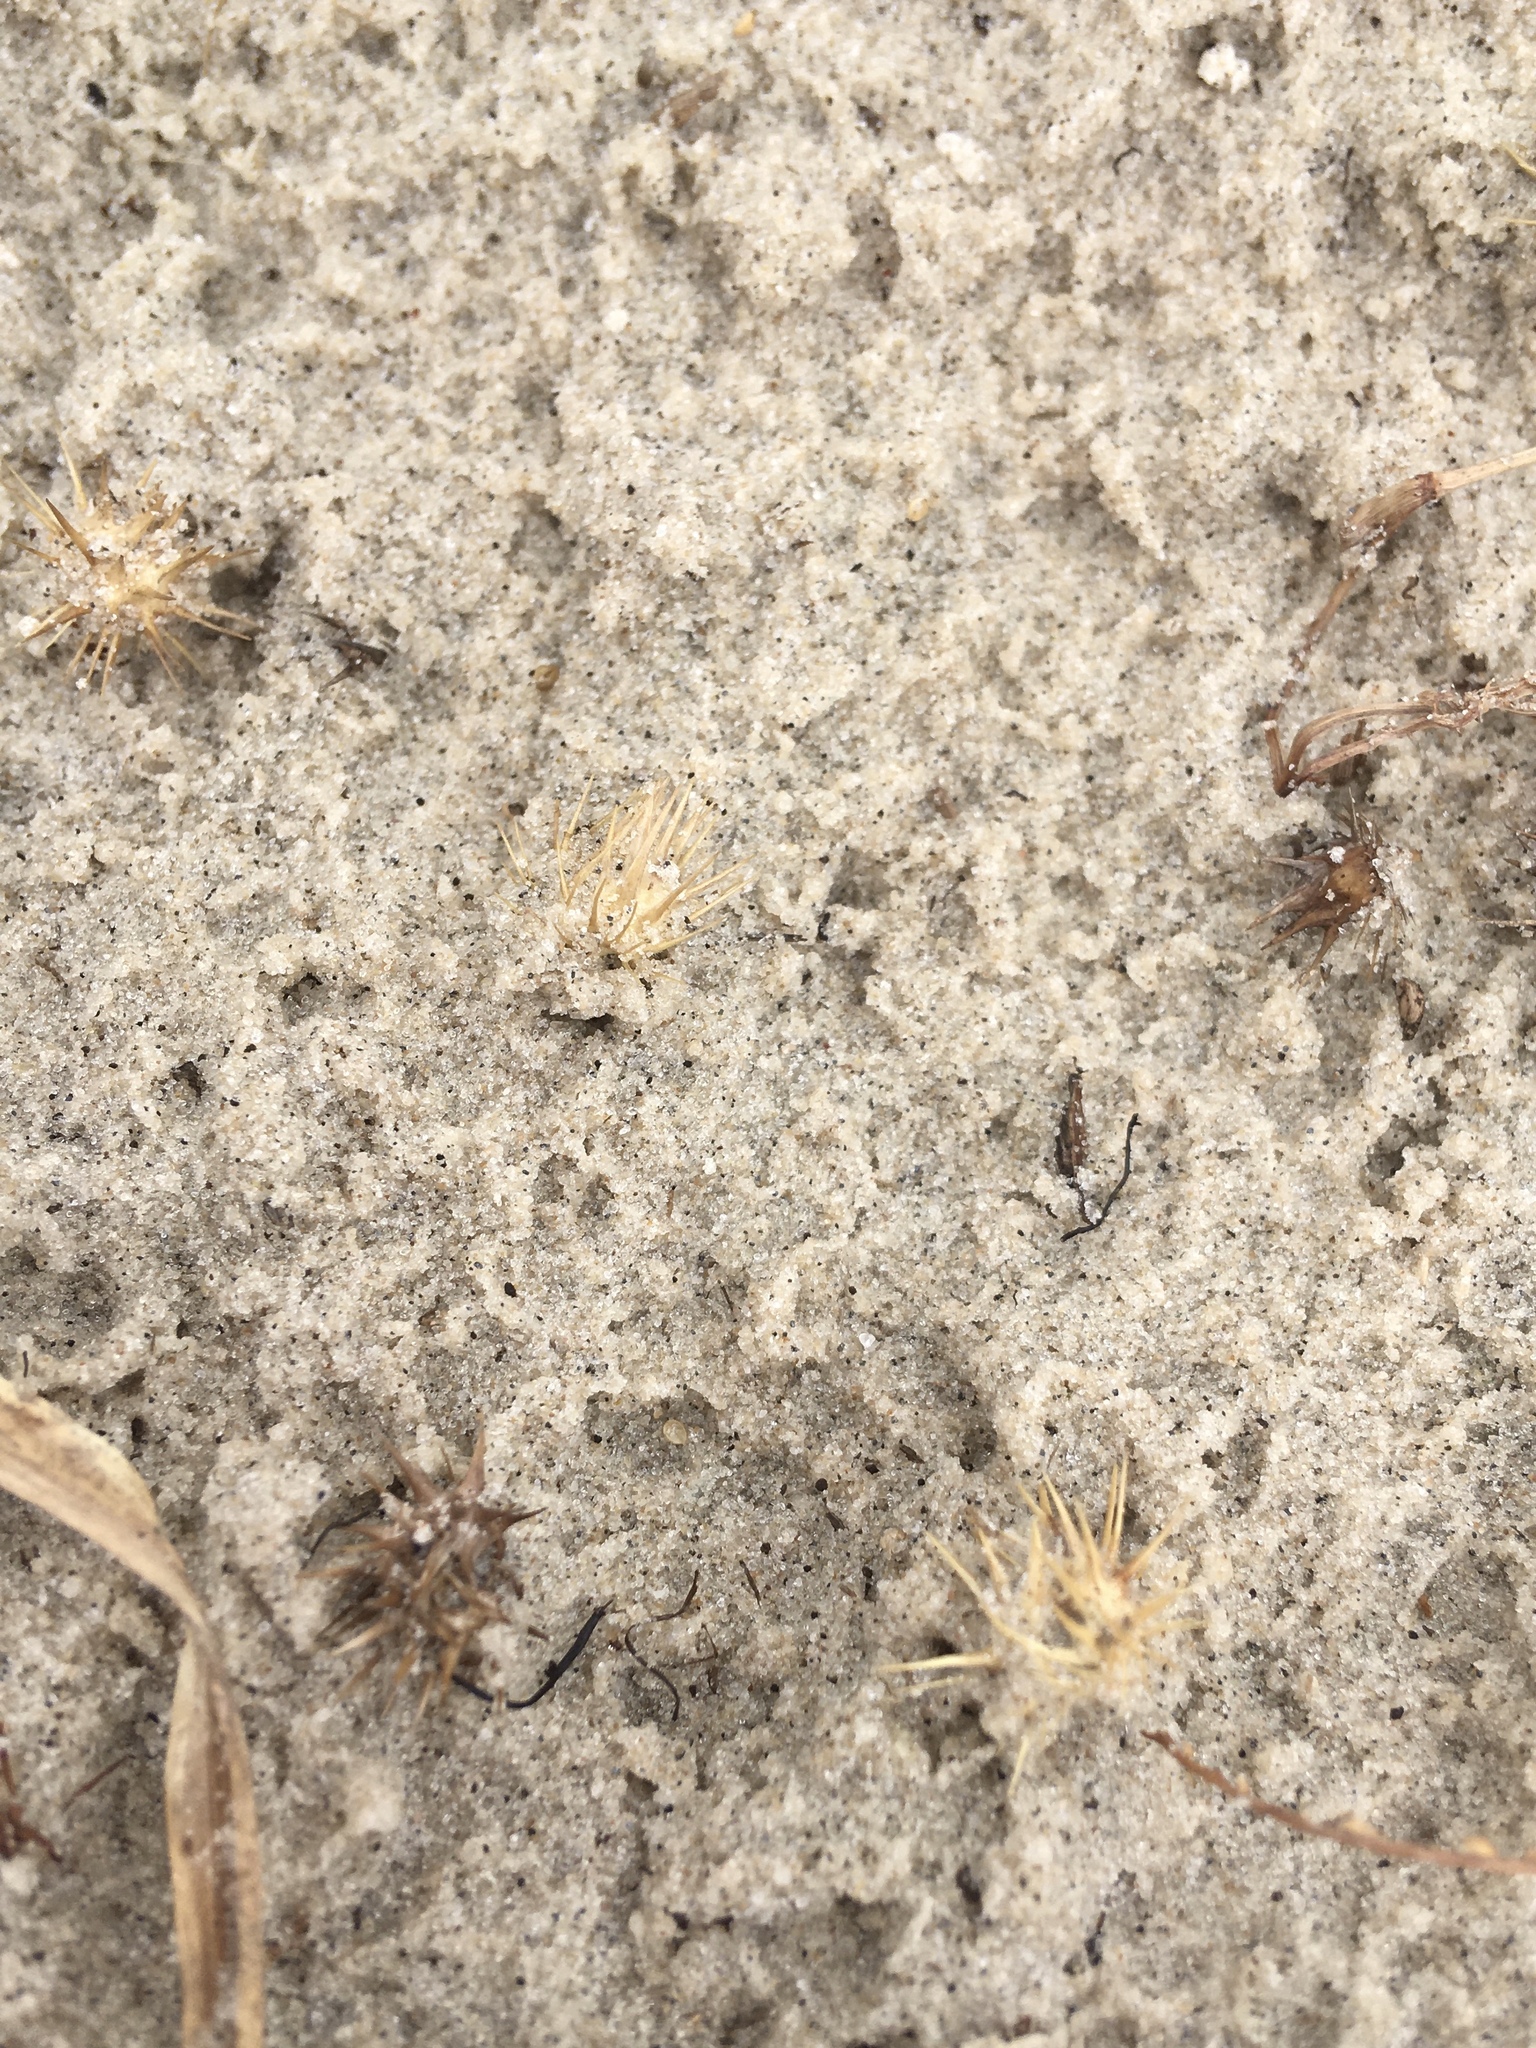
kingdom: Plantae
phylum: Tracheophyta
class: Liliopsida
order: Poales
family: Poaceae
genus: Cenchrus
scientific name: Cenchrus echinatus
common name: Southern sandbur
